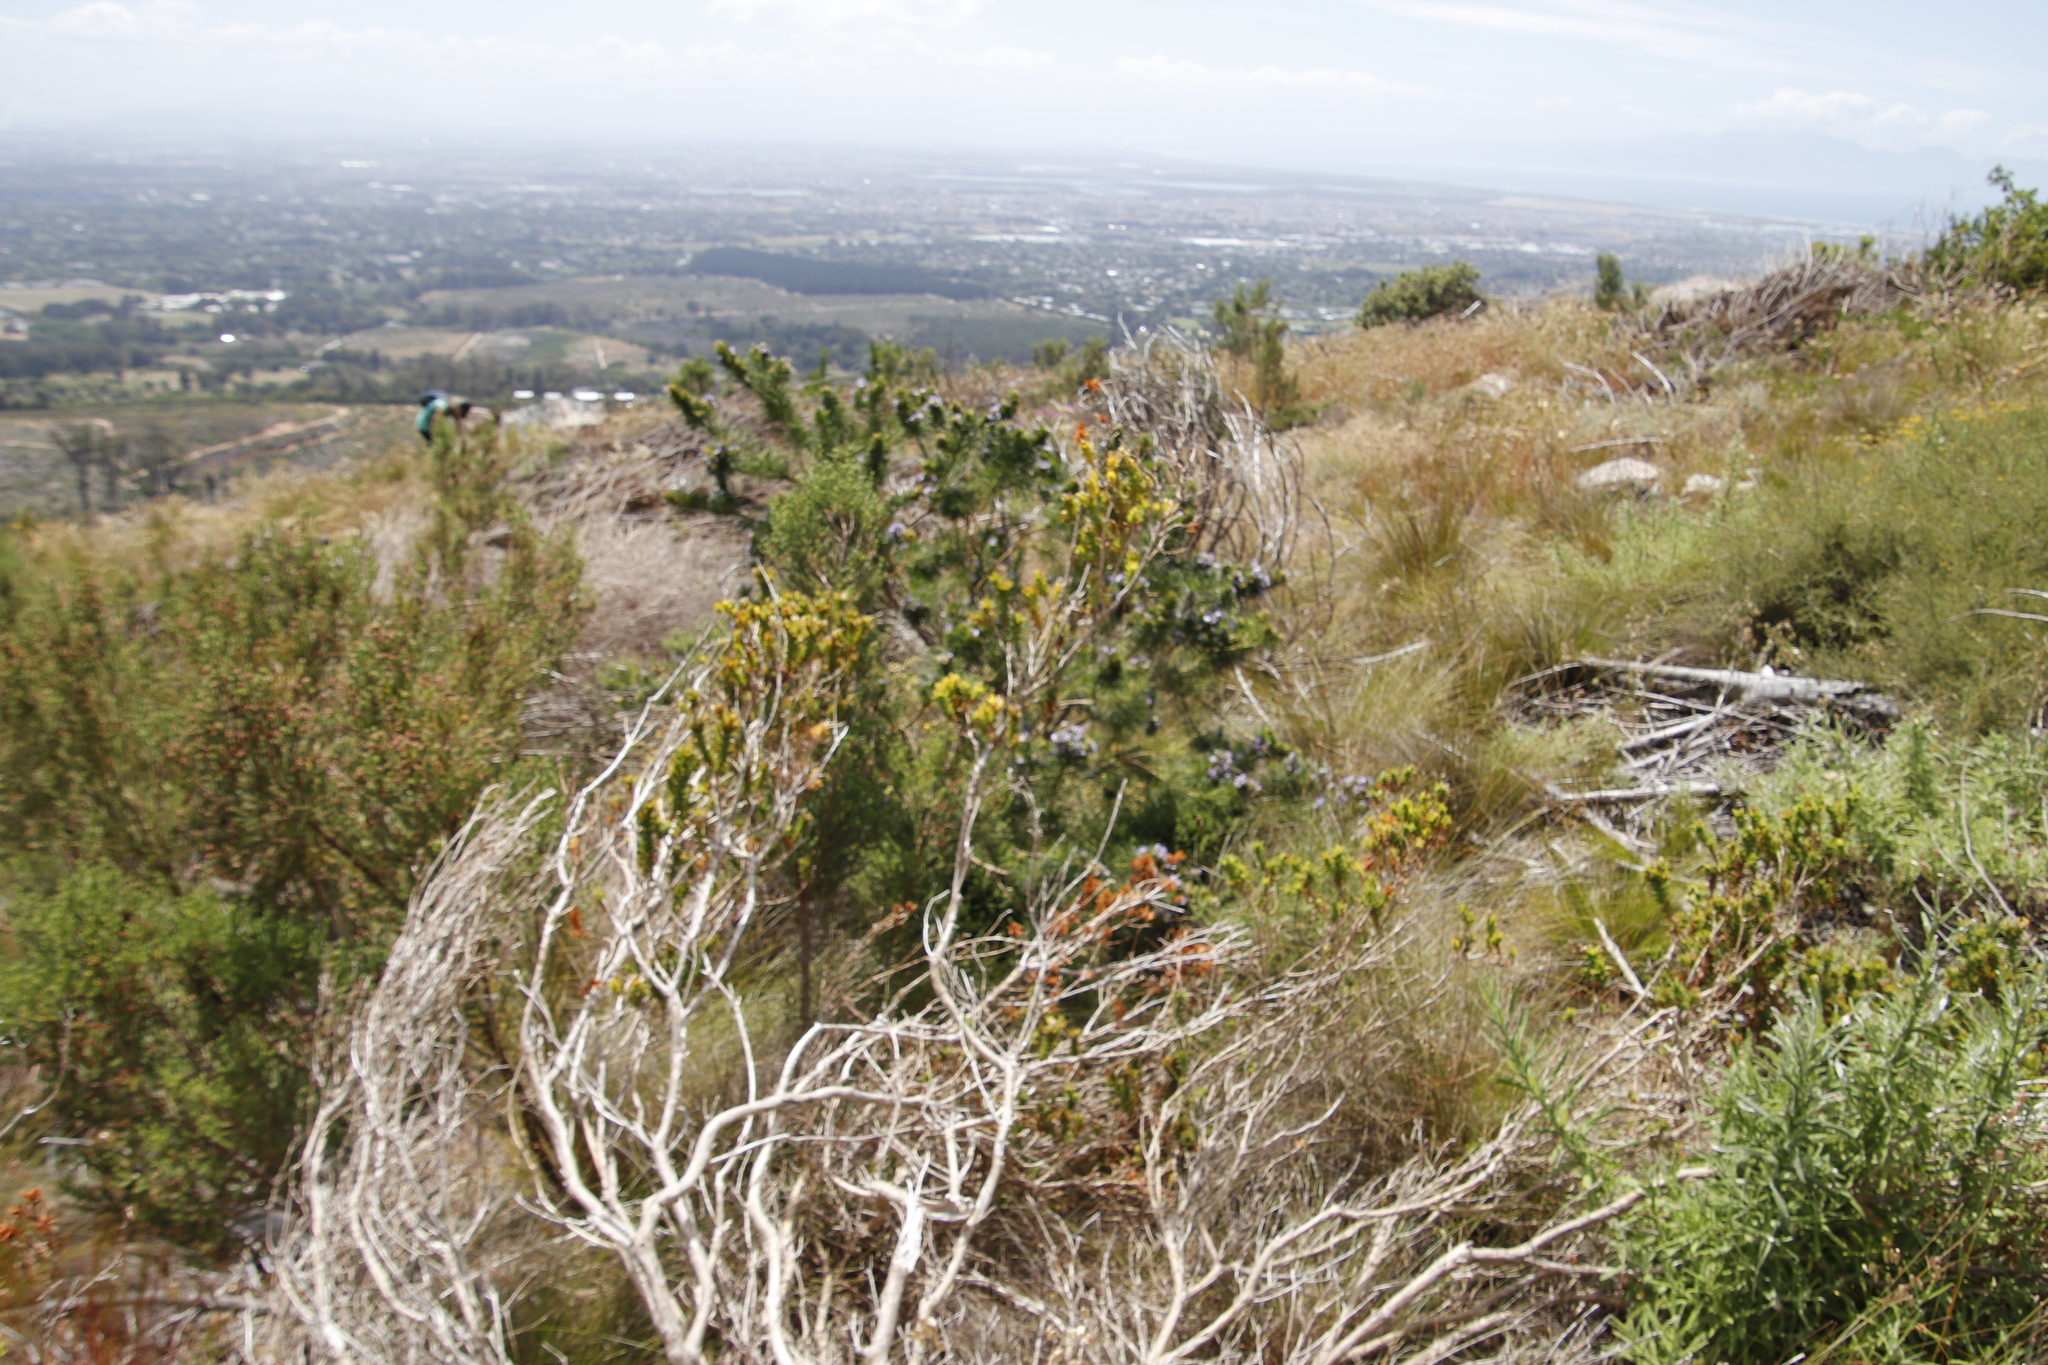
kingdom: Plantae
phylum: Tracheophyta
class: Magnoliopsida
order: Fabales
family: Fabaceae
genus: Psoralea
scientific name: Psoralea pinnata
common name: African scurfpea
